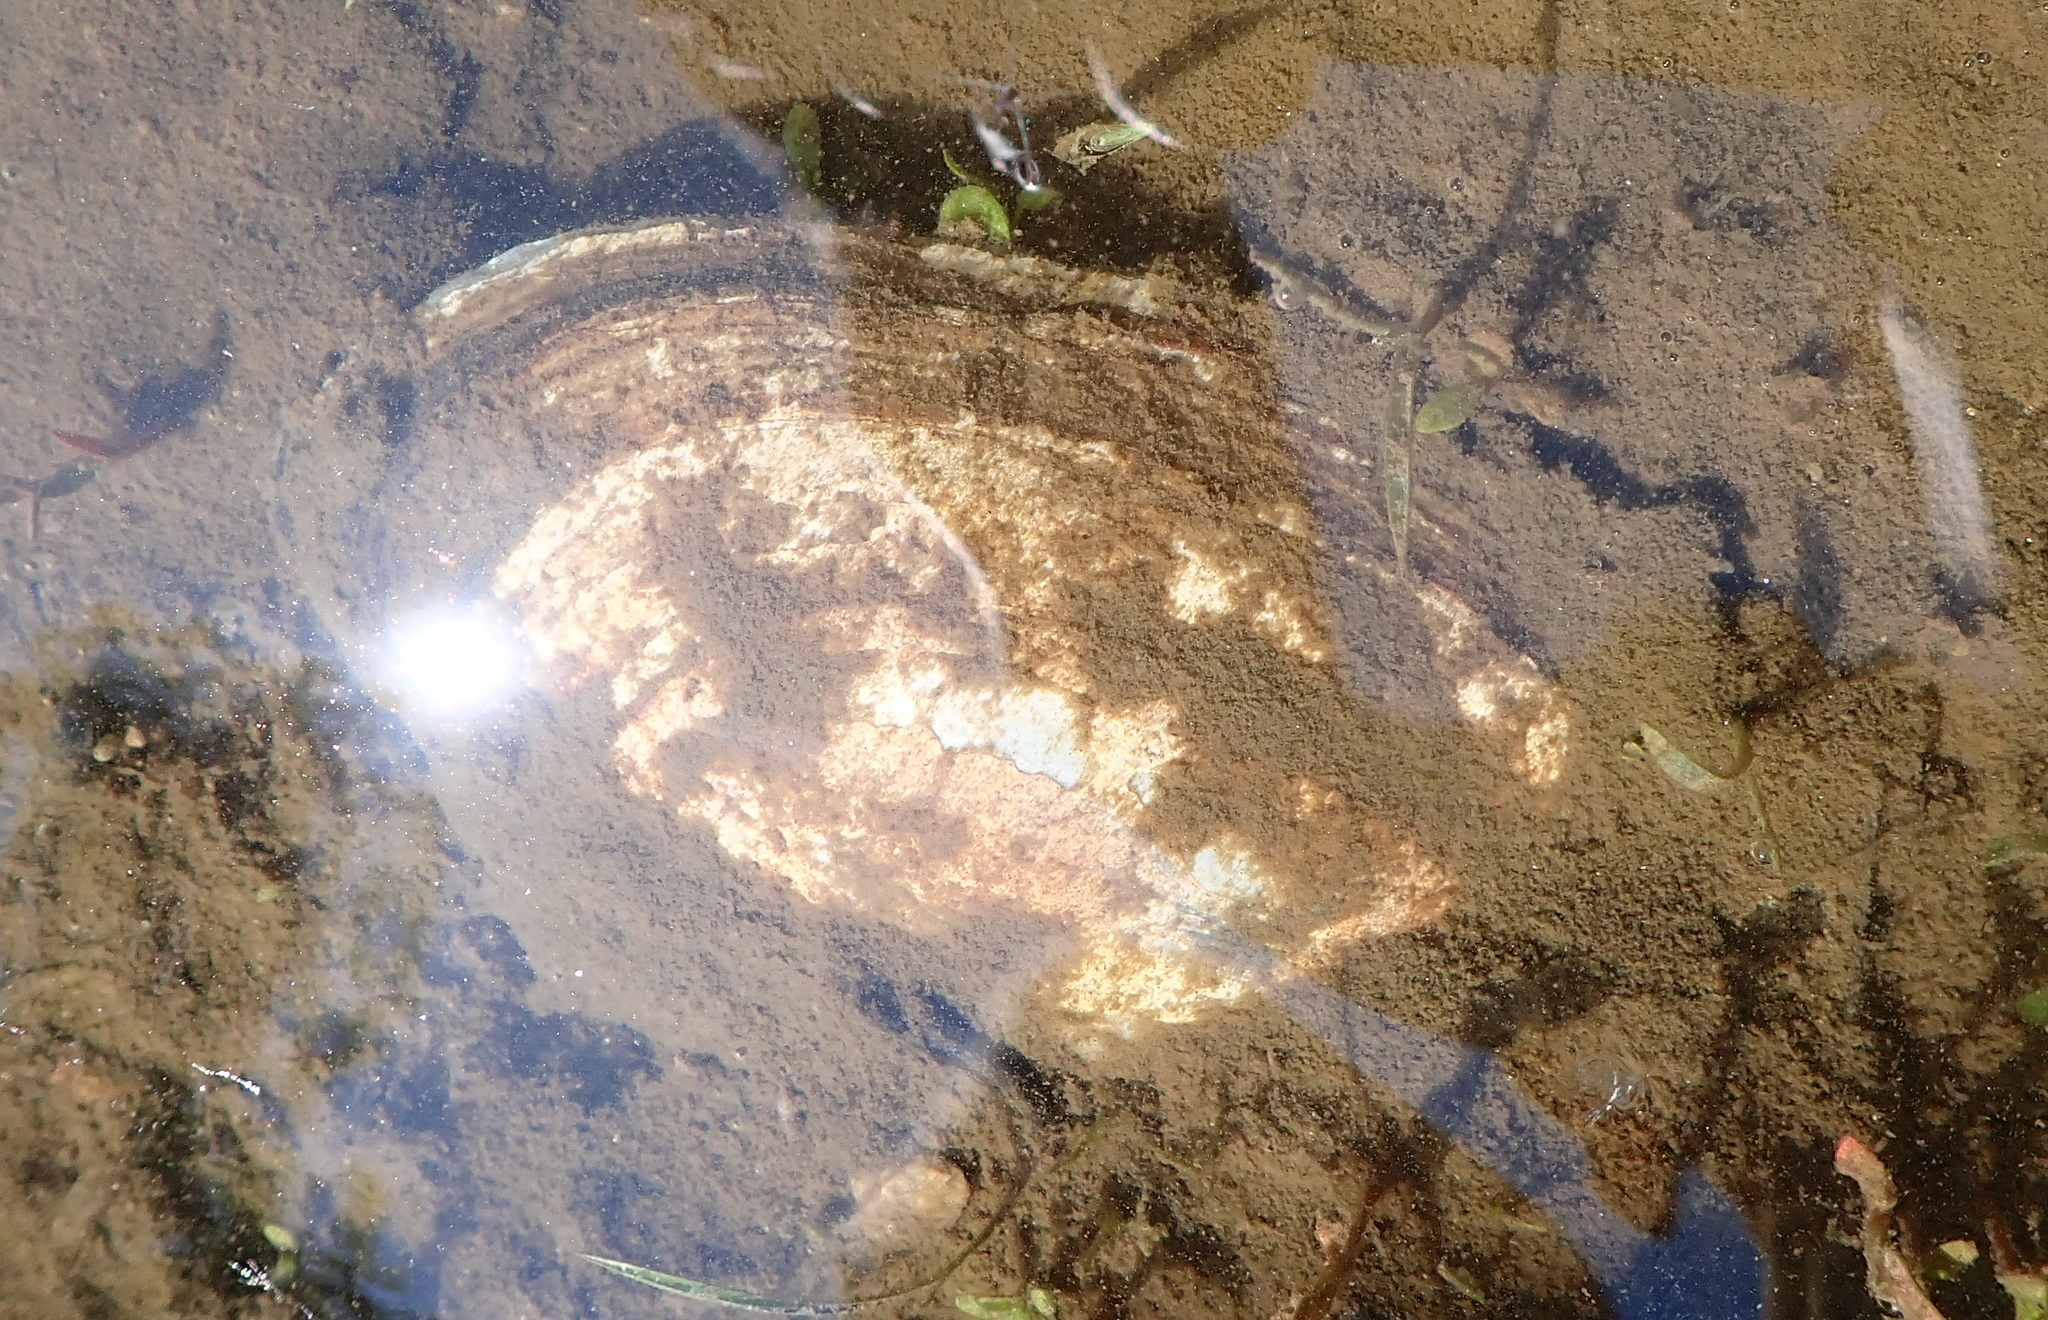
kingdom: Animalia
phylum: Mollusca
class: Bivalvia
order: Unionida
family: Unionidae
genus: Sinanodonta
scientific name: Sinanodonta woodiana
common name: Chinese pond mussel
